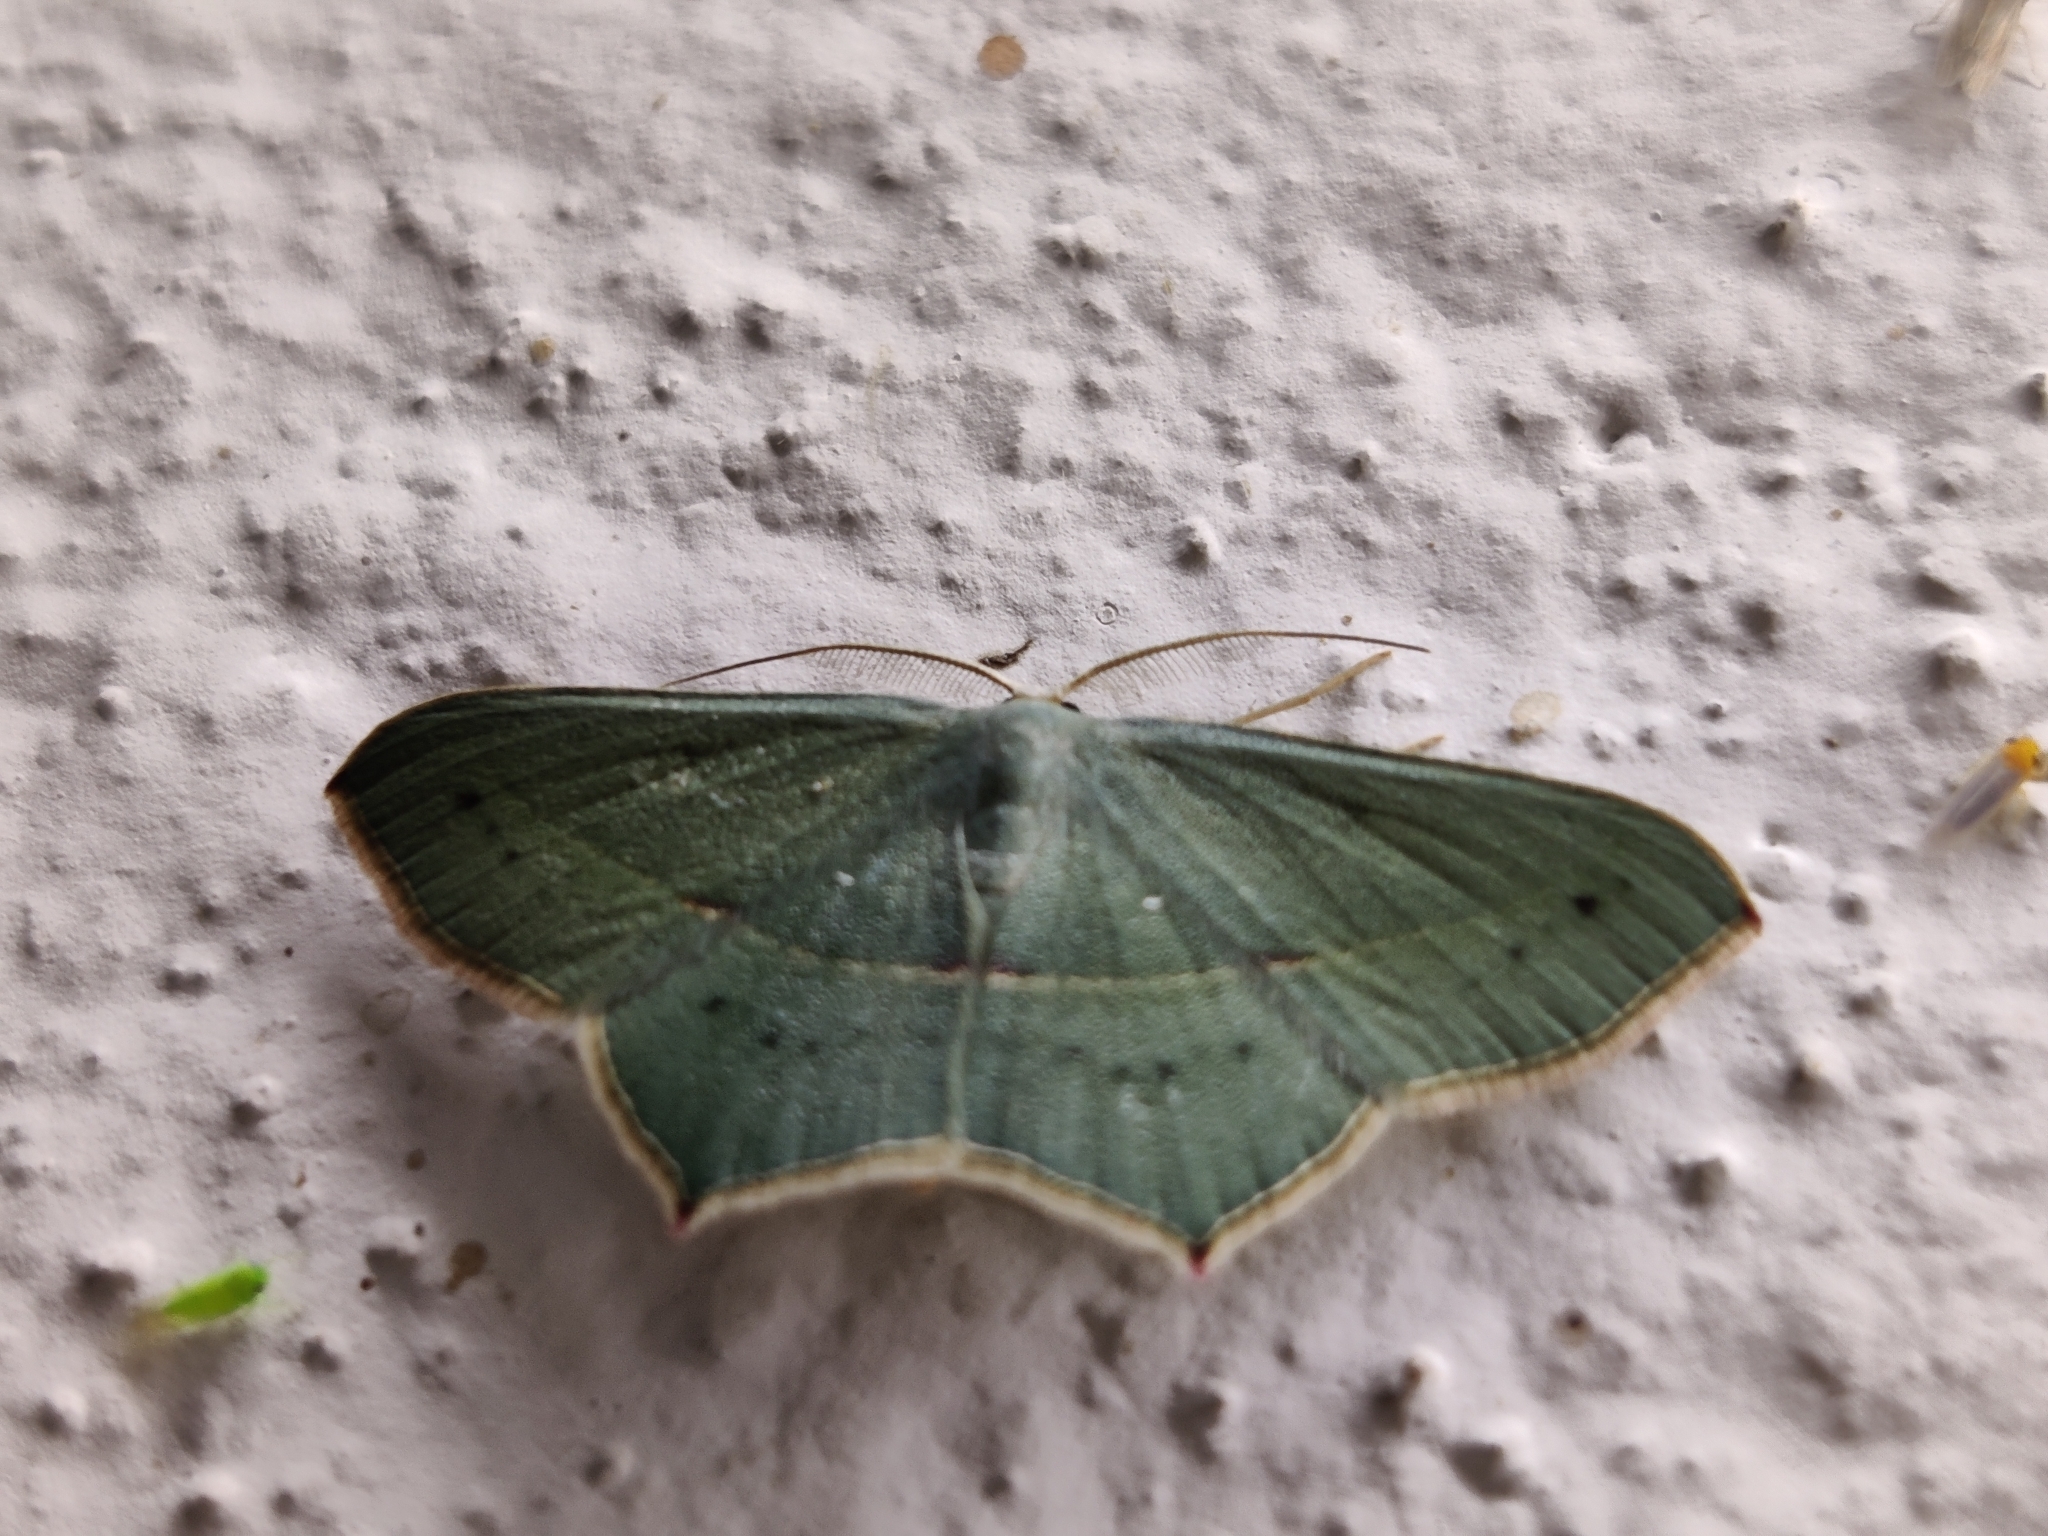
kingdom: Animalia
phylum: Arthropoda
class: Insecta
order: Lepidoptera
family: Geometridae
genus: Traminda
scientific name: Traminda mundissima
